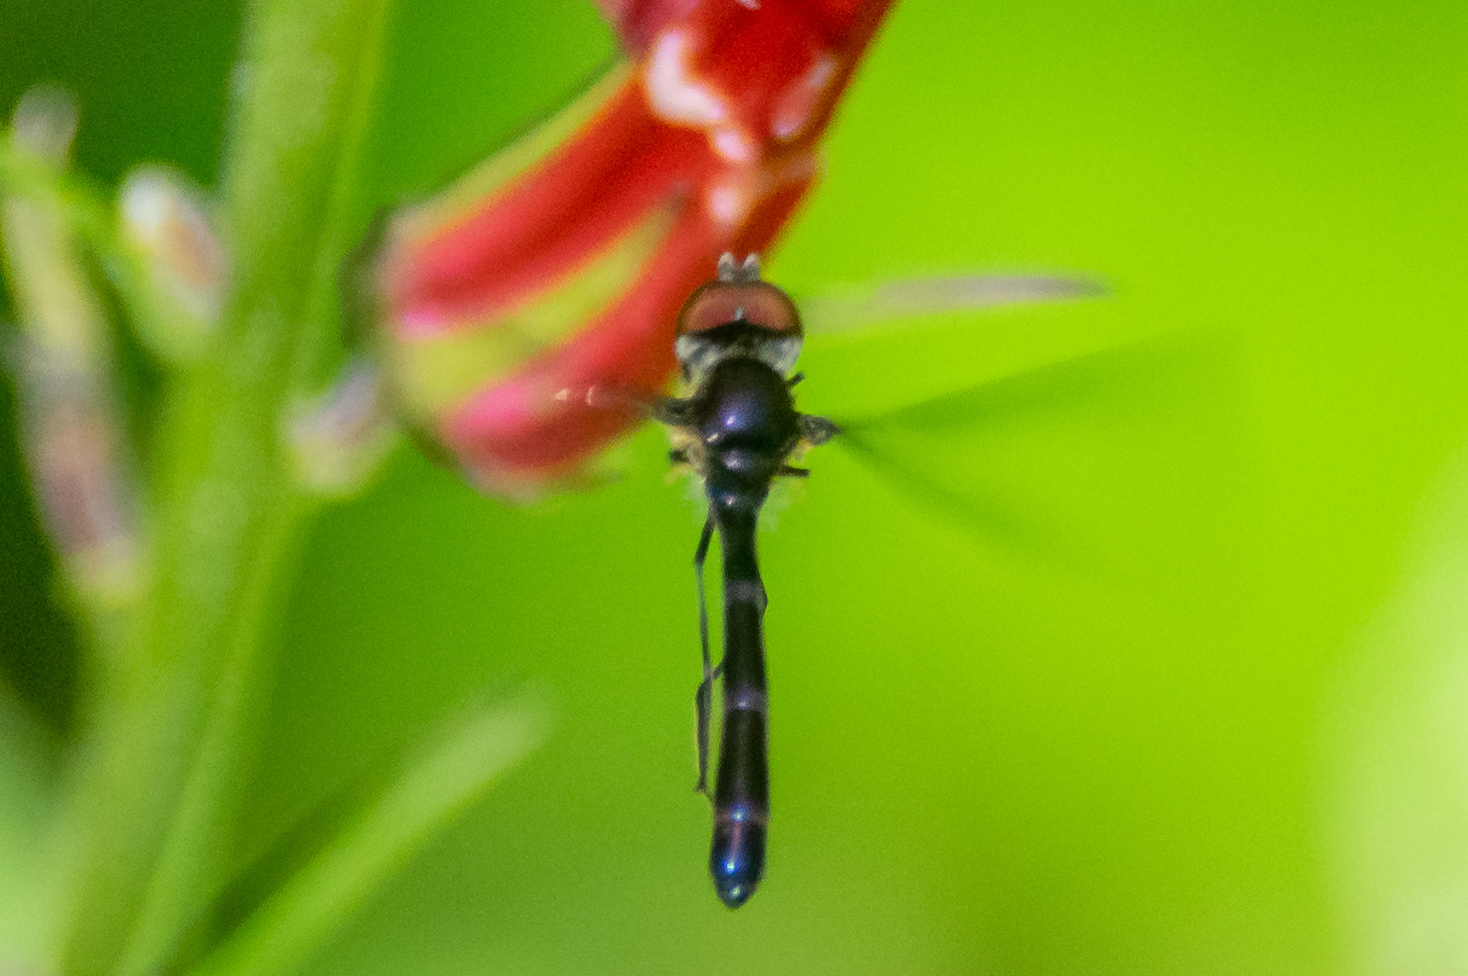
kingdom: Animalia
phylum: Arthropoda
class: Insecta
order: Diptera
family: Syrphidae
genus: Ocyptamus
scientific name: Ocyptamus fuscipennis
